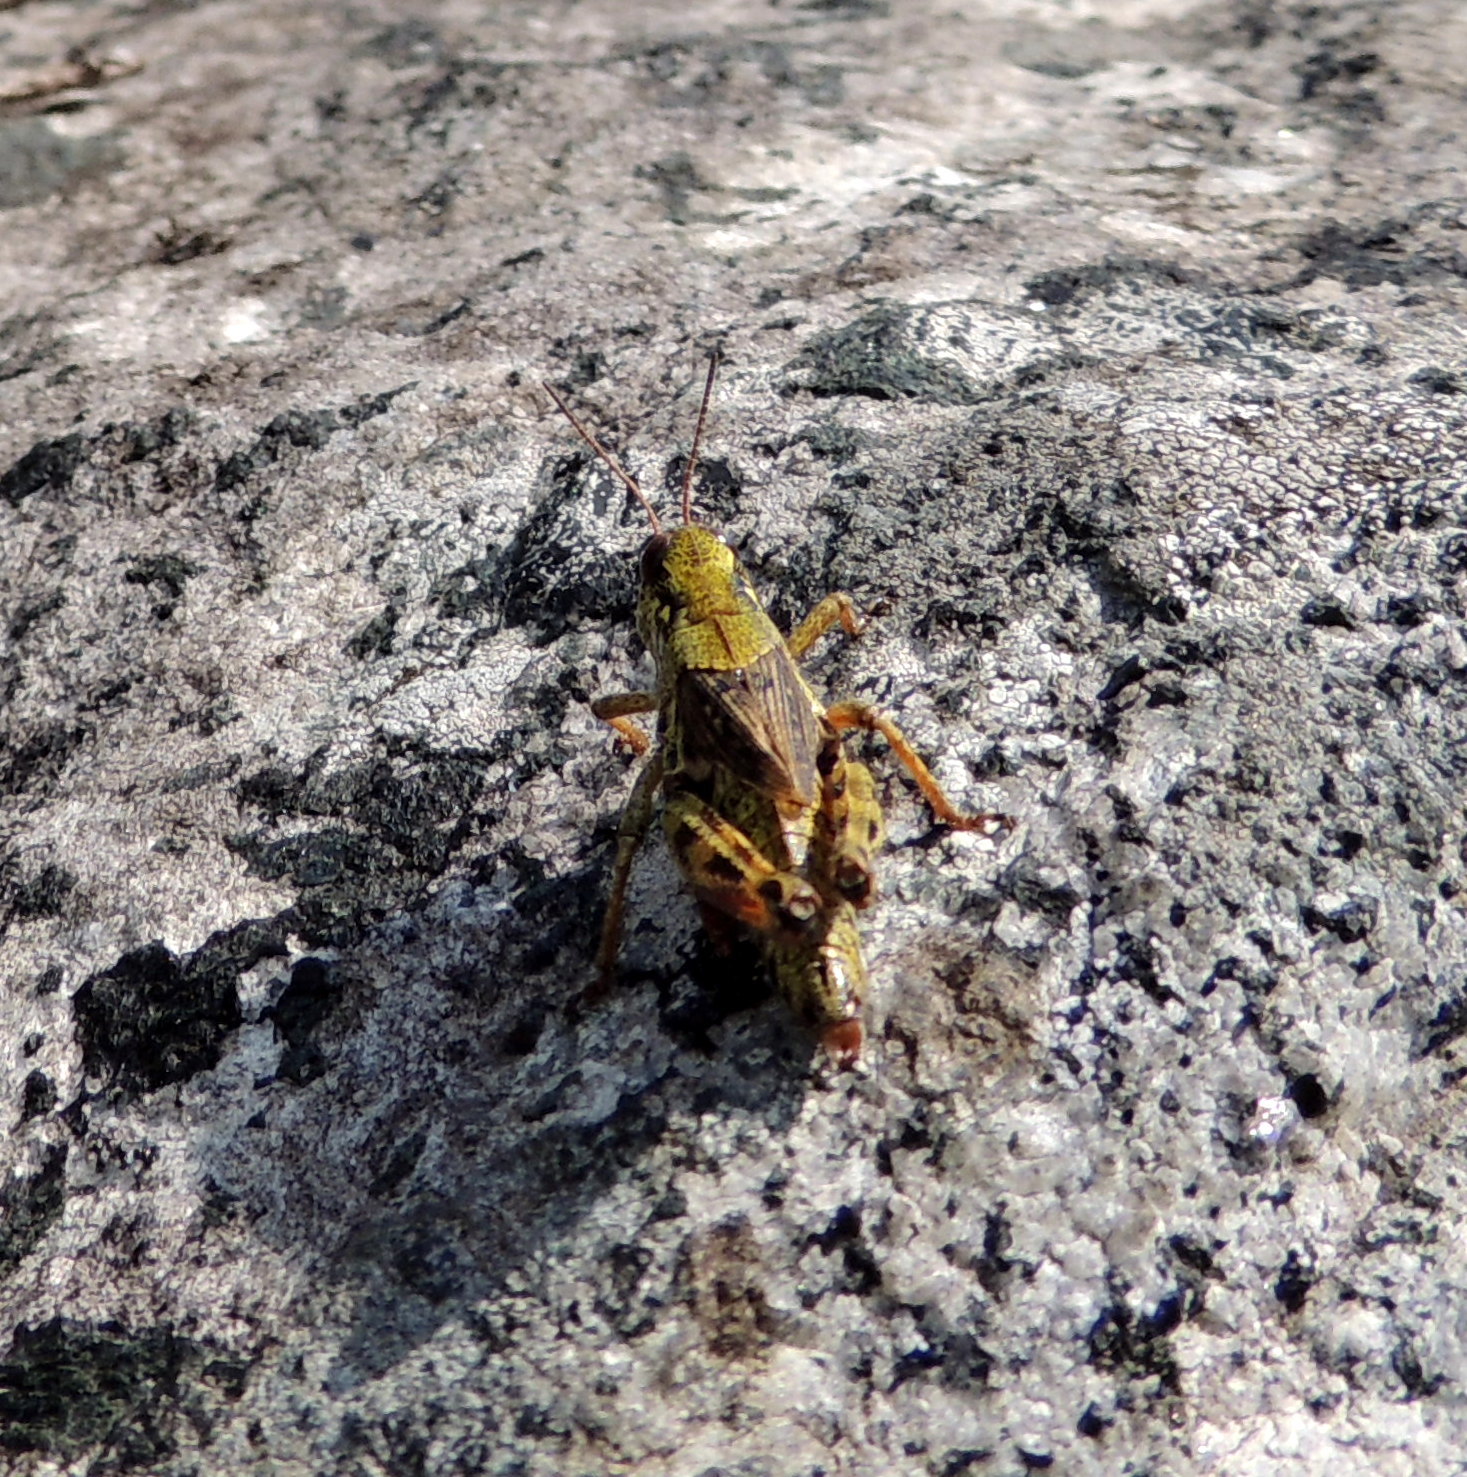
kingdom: Animalia
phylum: Arthropoda
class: Insecta
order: Orthoptera
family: Acrididae
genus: Bohemanella
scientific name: Bohemanella frigida
